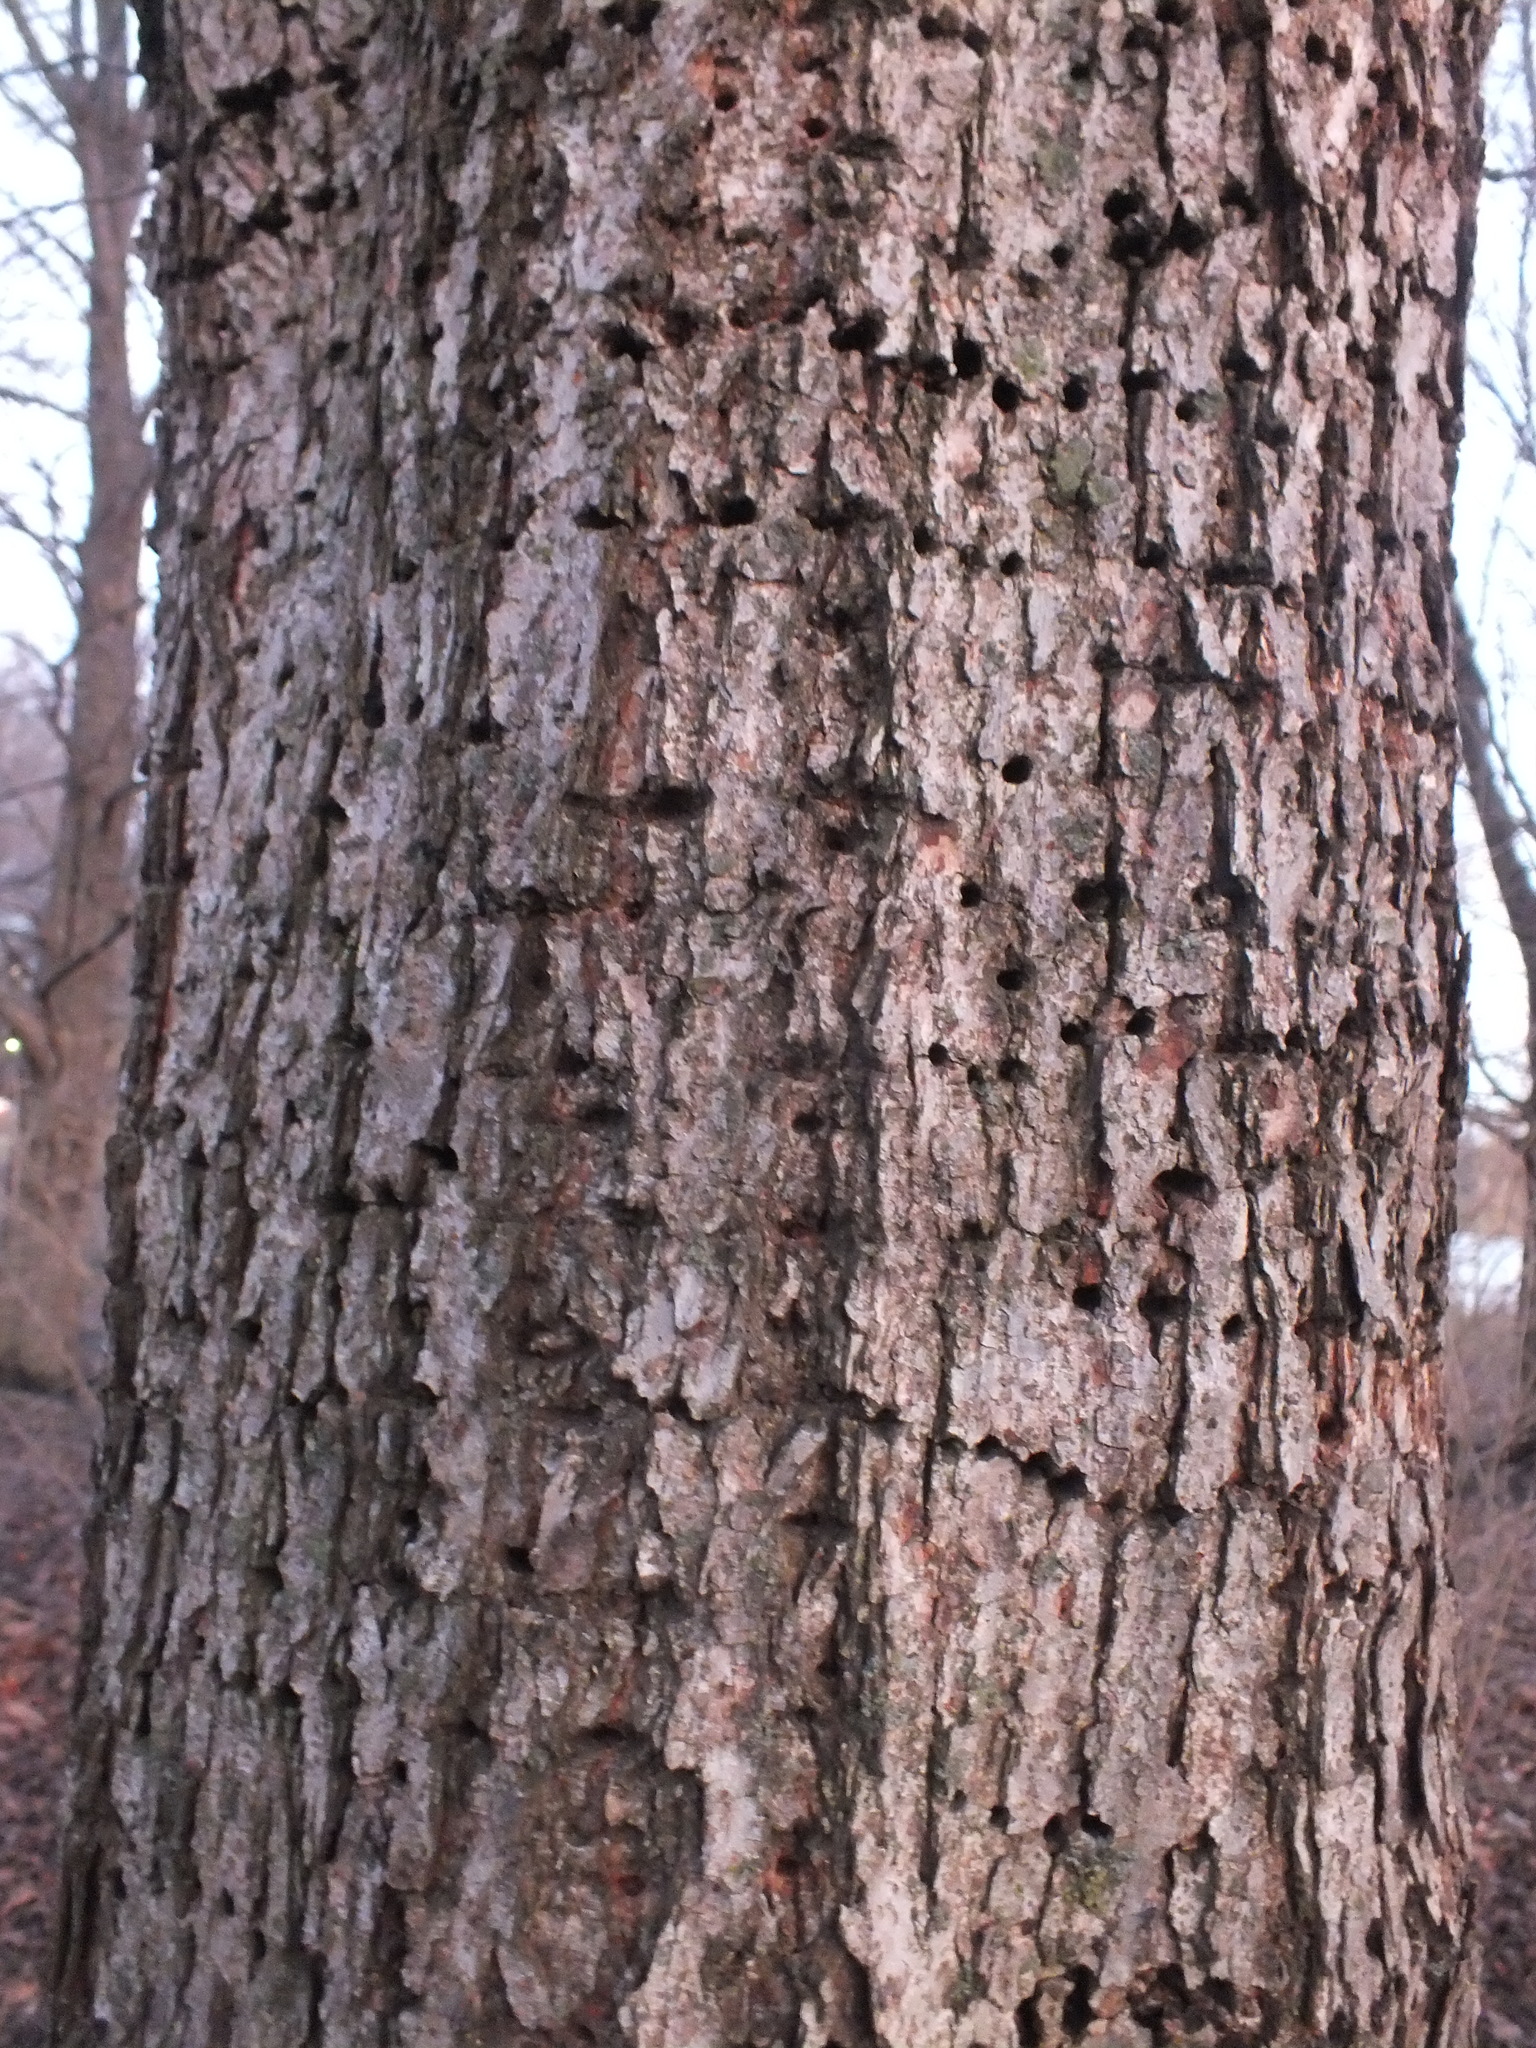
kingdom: Animalia
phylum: Chordata
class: Aves
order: Piciformes
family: Picidae
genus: Sphyrapicus
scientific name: Sphyrapicus varius
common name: Yellow-bellied sapsucker
